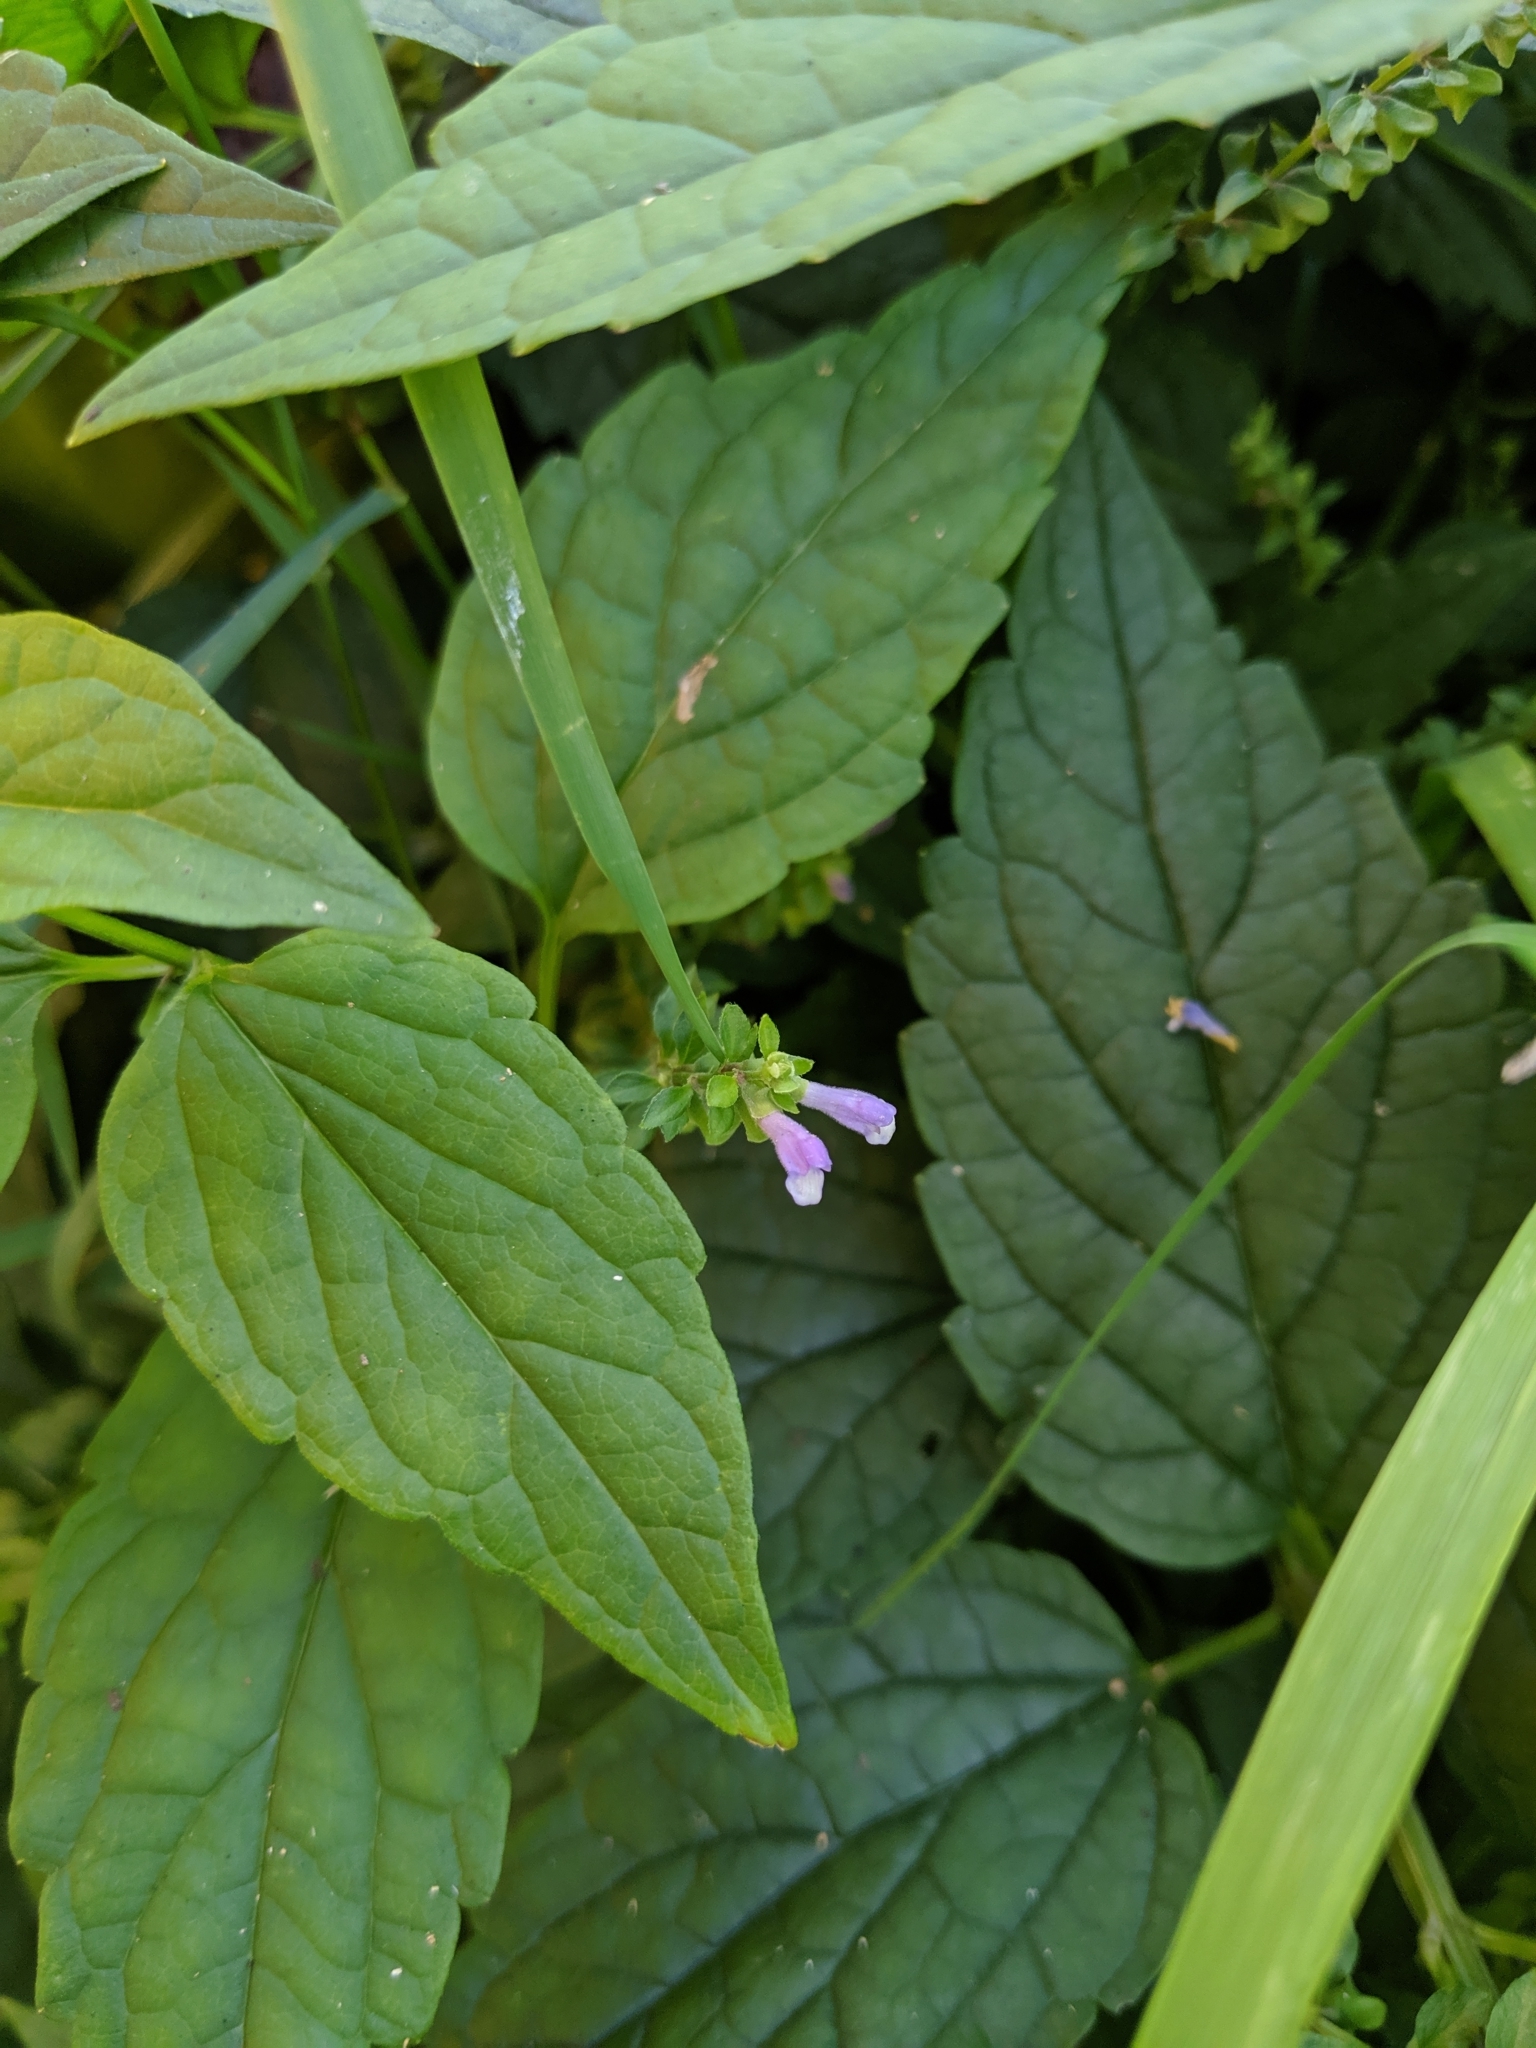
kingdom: Plantae
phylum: Tracheophyta
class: Magnoliopsida
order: Lamiales
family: Lamiaceae
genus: Scutellaria
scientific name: Scutellaria lateriflora
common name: Blue skullcap
